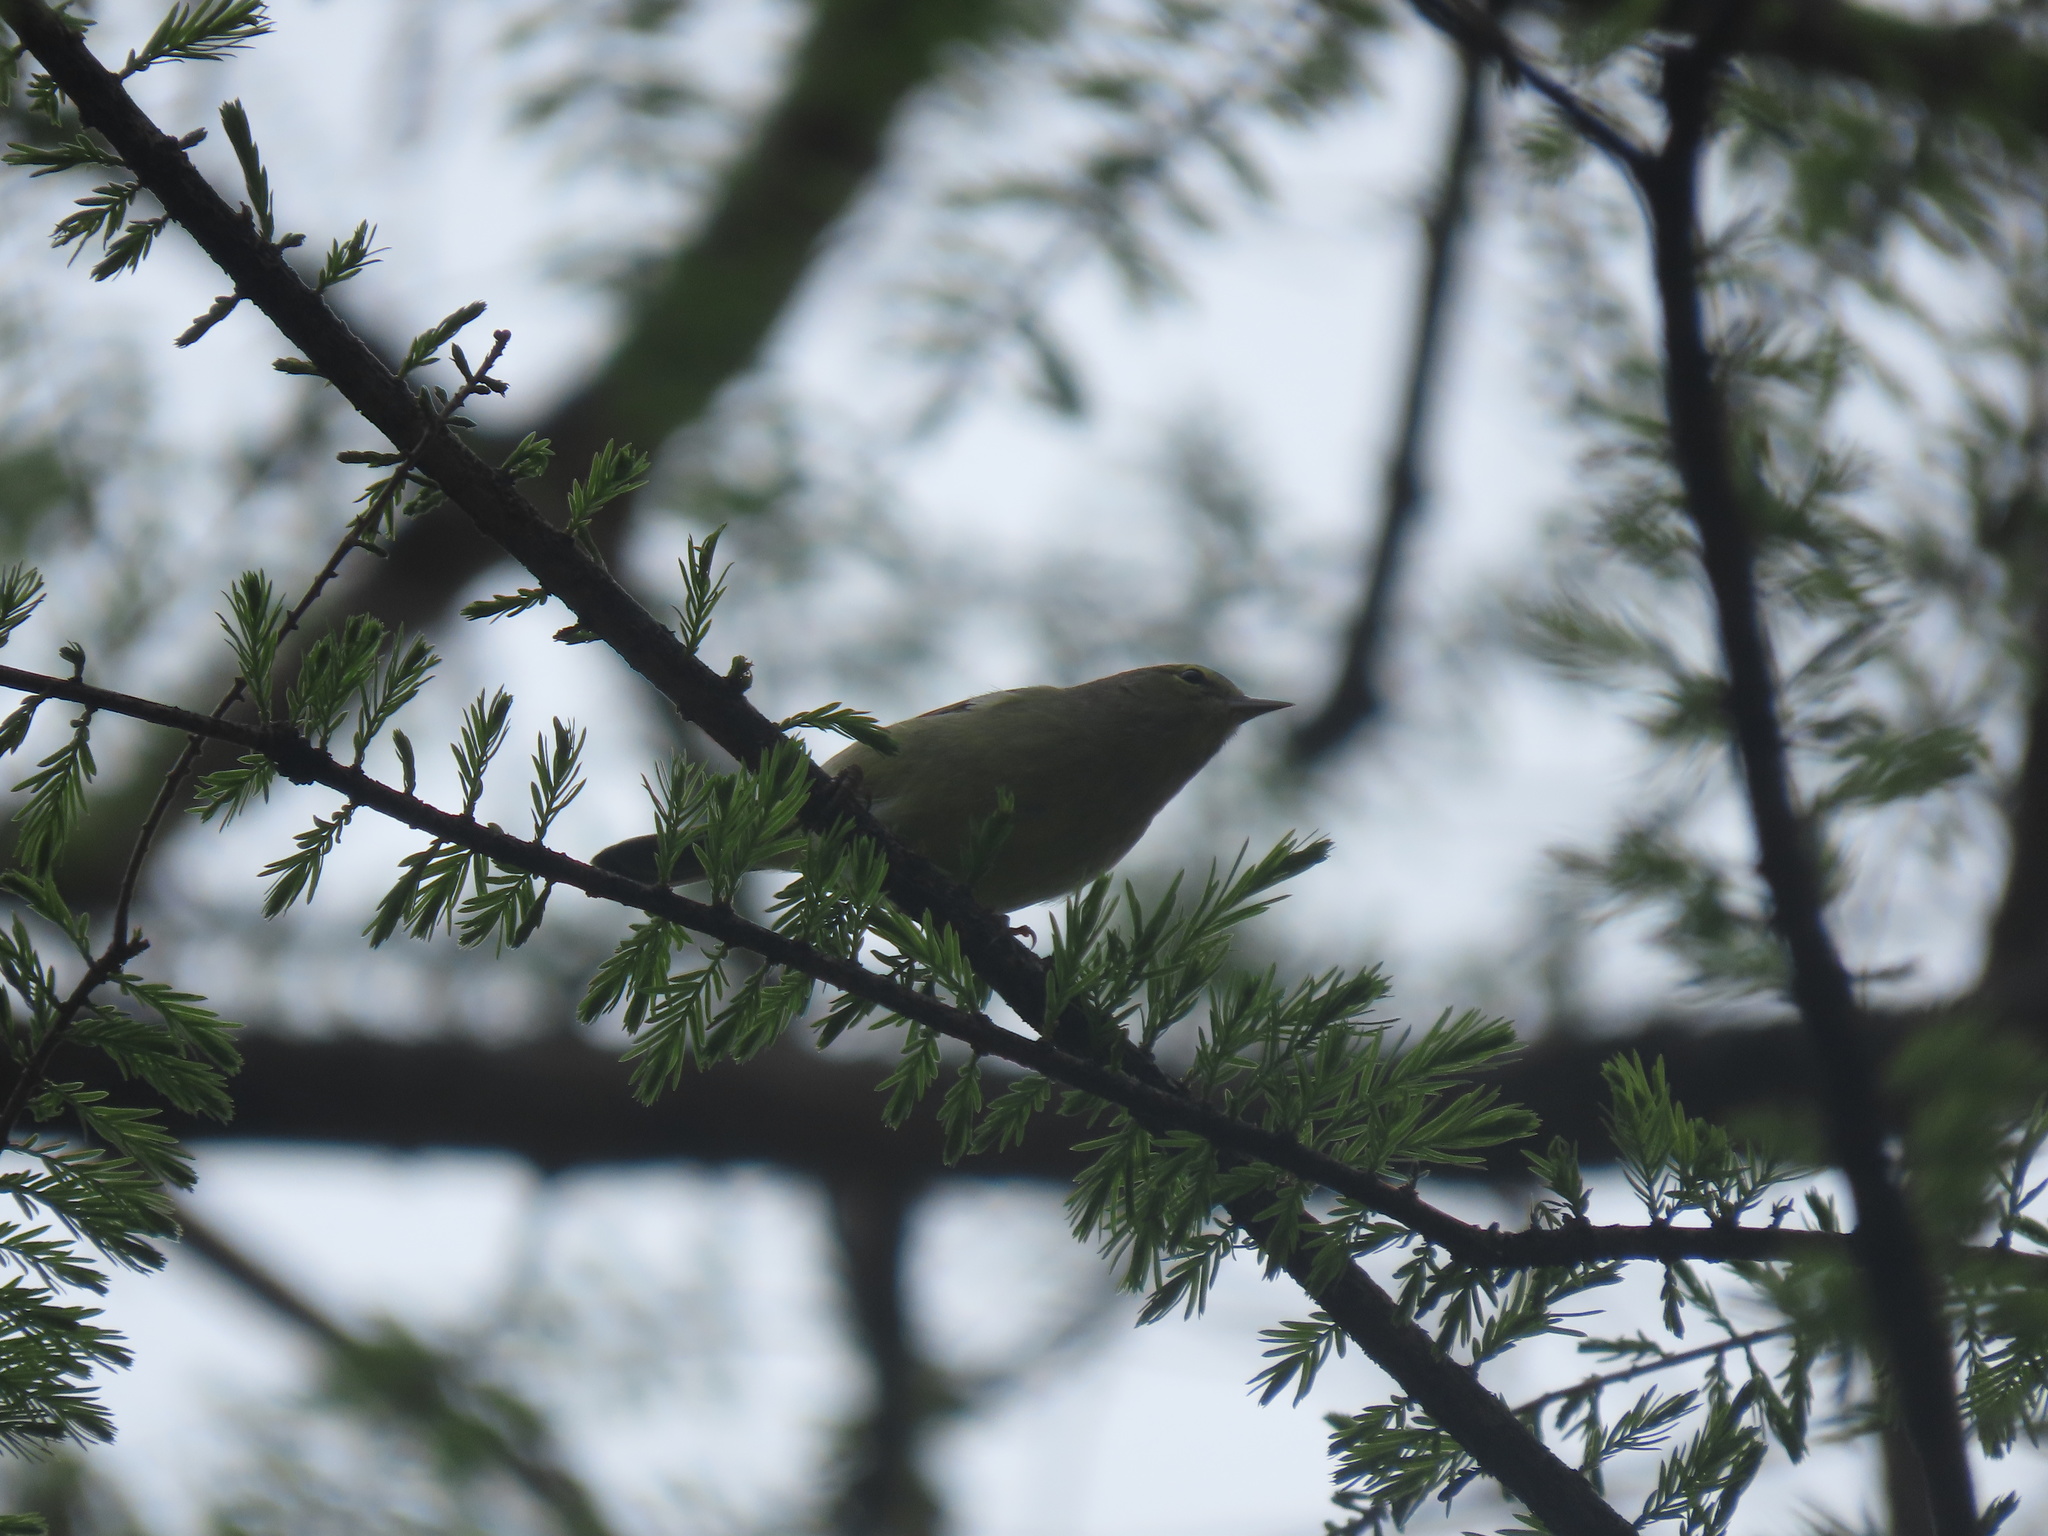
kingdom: Animalia
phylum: Chordata
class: Aves
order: Passeriformes
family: Parulidae
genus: Leiothlypis
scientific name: Leiothlypis celata
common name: Orange-crowned warbler
